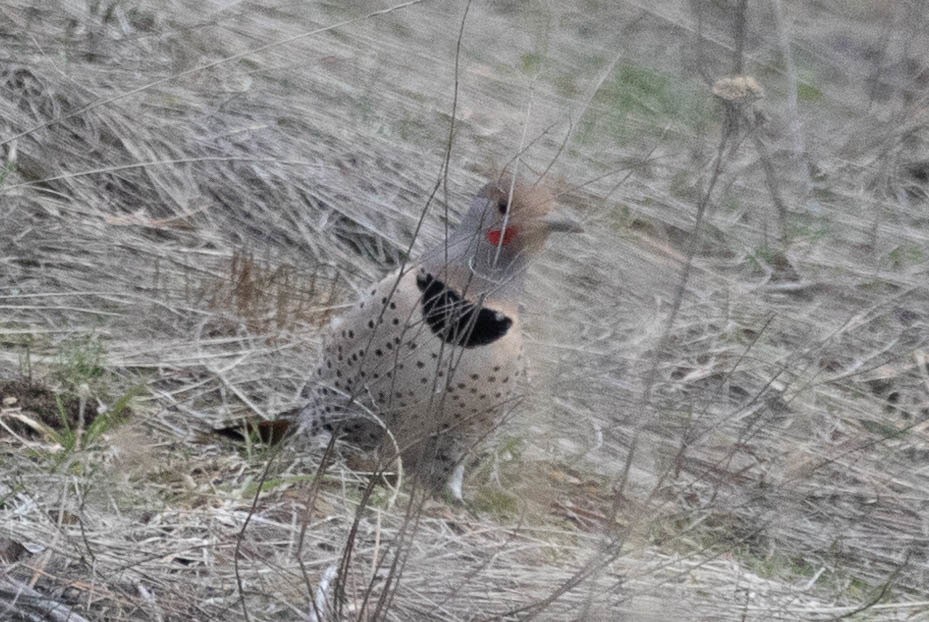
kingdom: Animalia
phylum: Chordata
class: Aves
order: Piciformes
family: Picidae
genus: Colaptes
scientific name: Colaptes auratus
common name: Northern flicker
